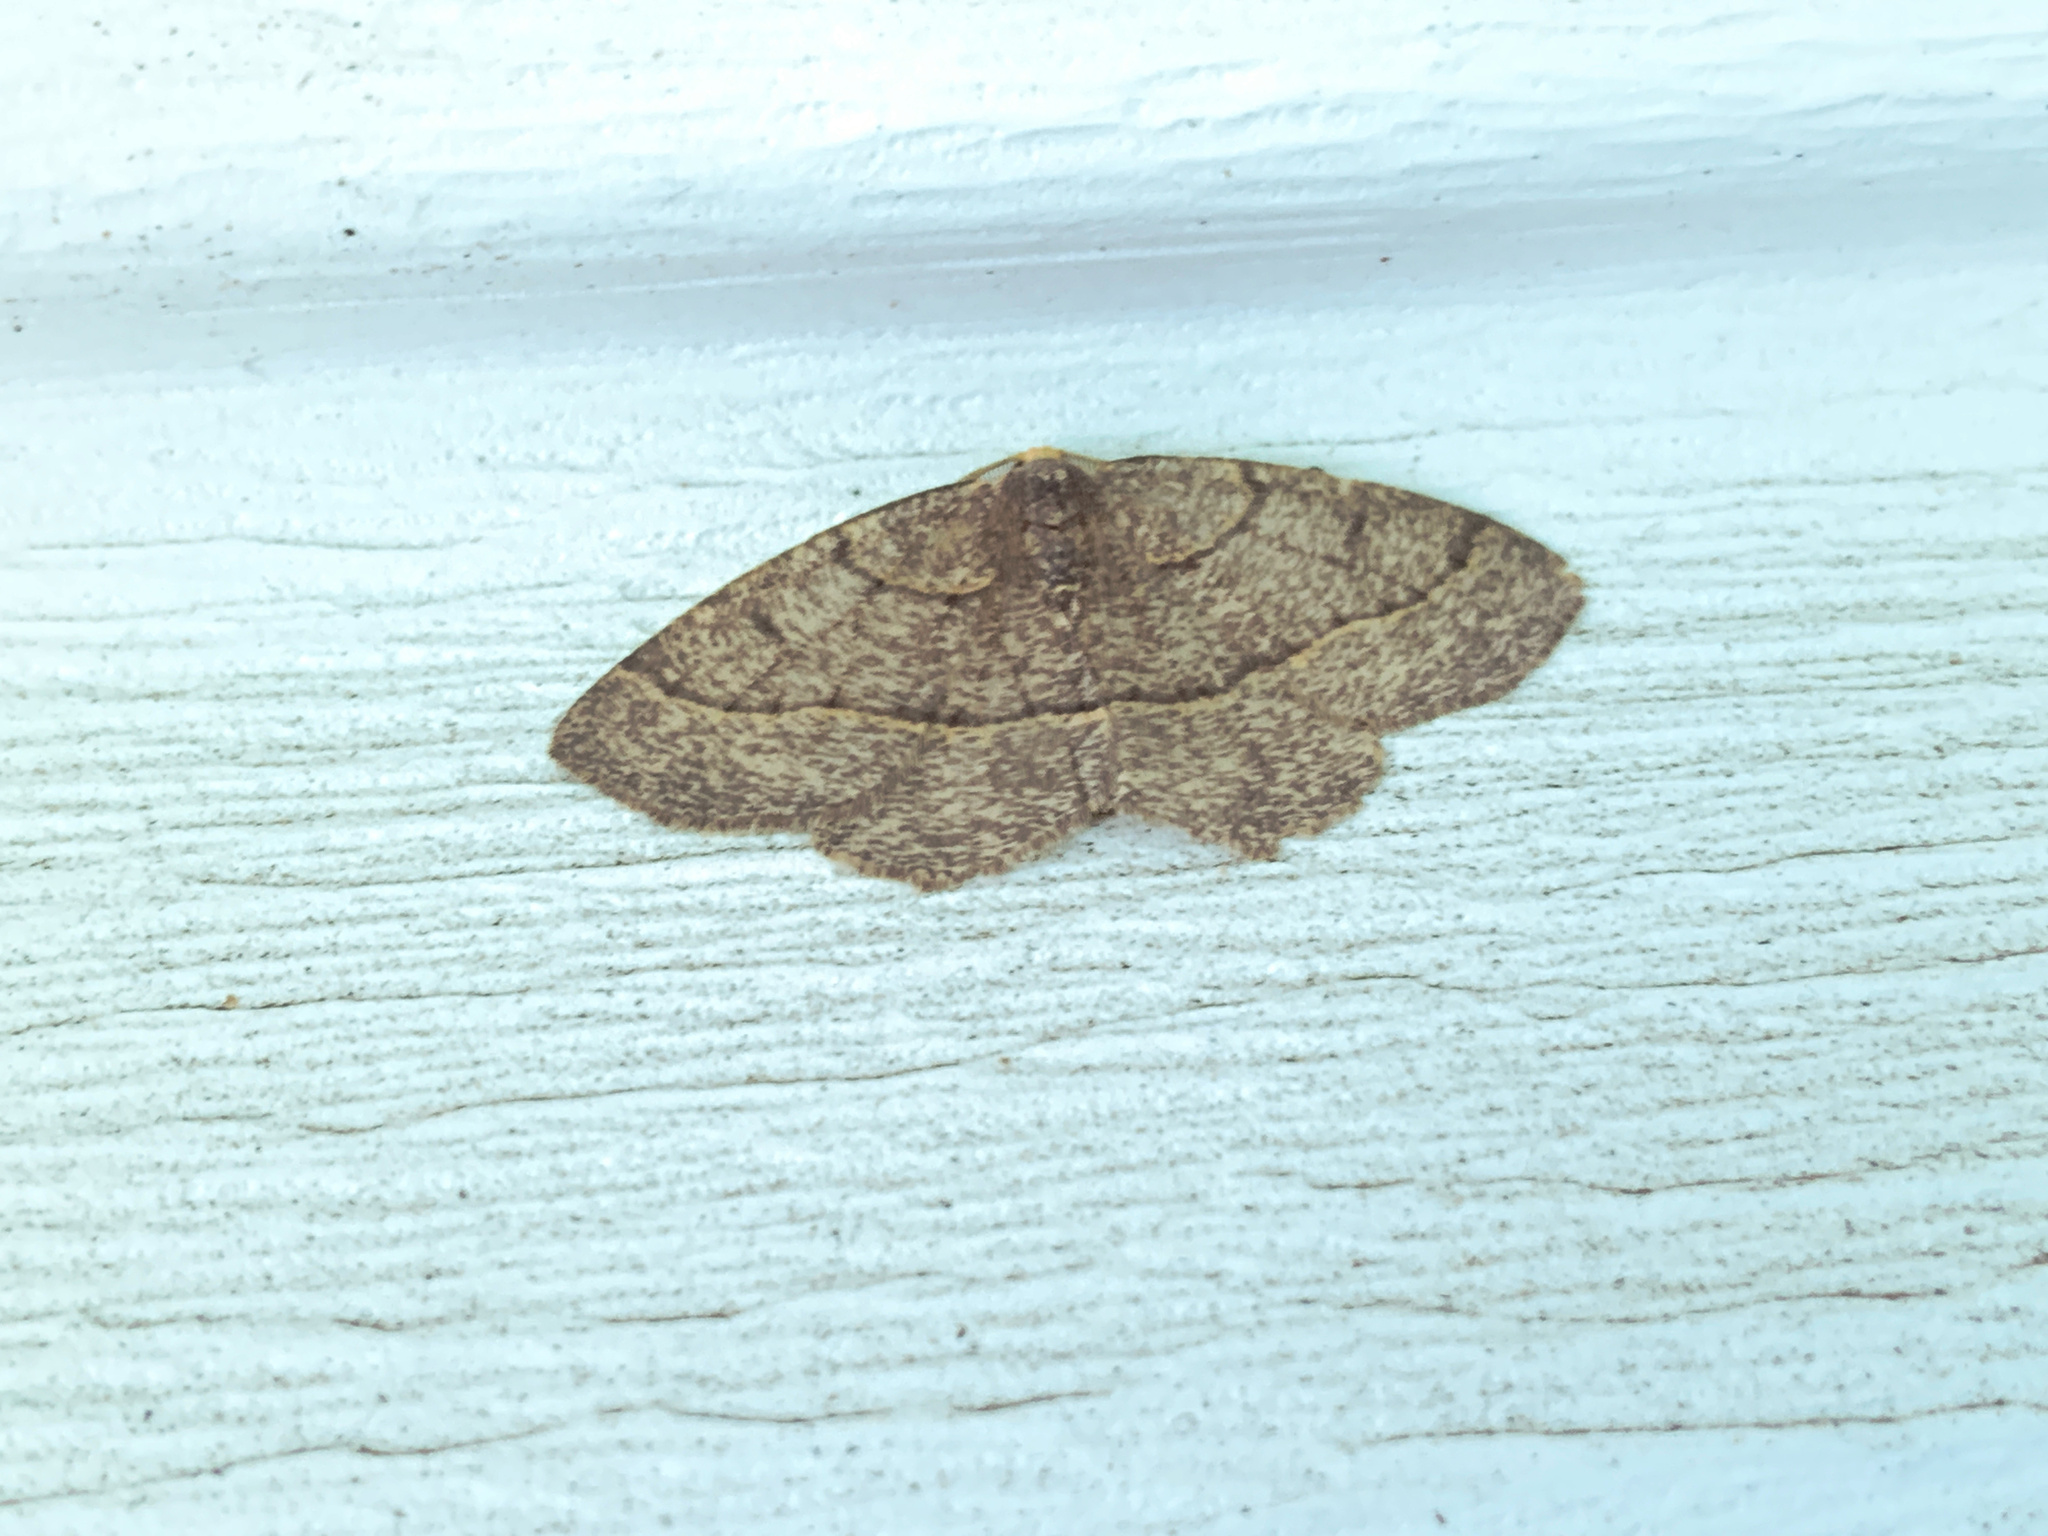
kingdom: Animalia
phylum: Arthropoda
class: Insecta
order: Lepidoptera
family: Geometridae
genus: Lambdina
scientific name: Lambdina fervidaria
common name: Curve-lined looper moth
